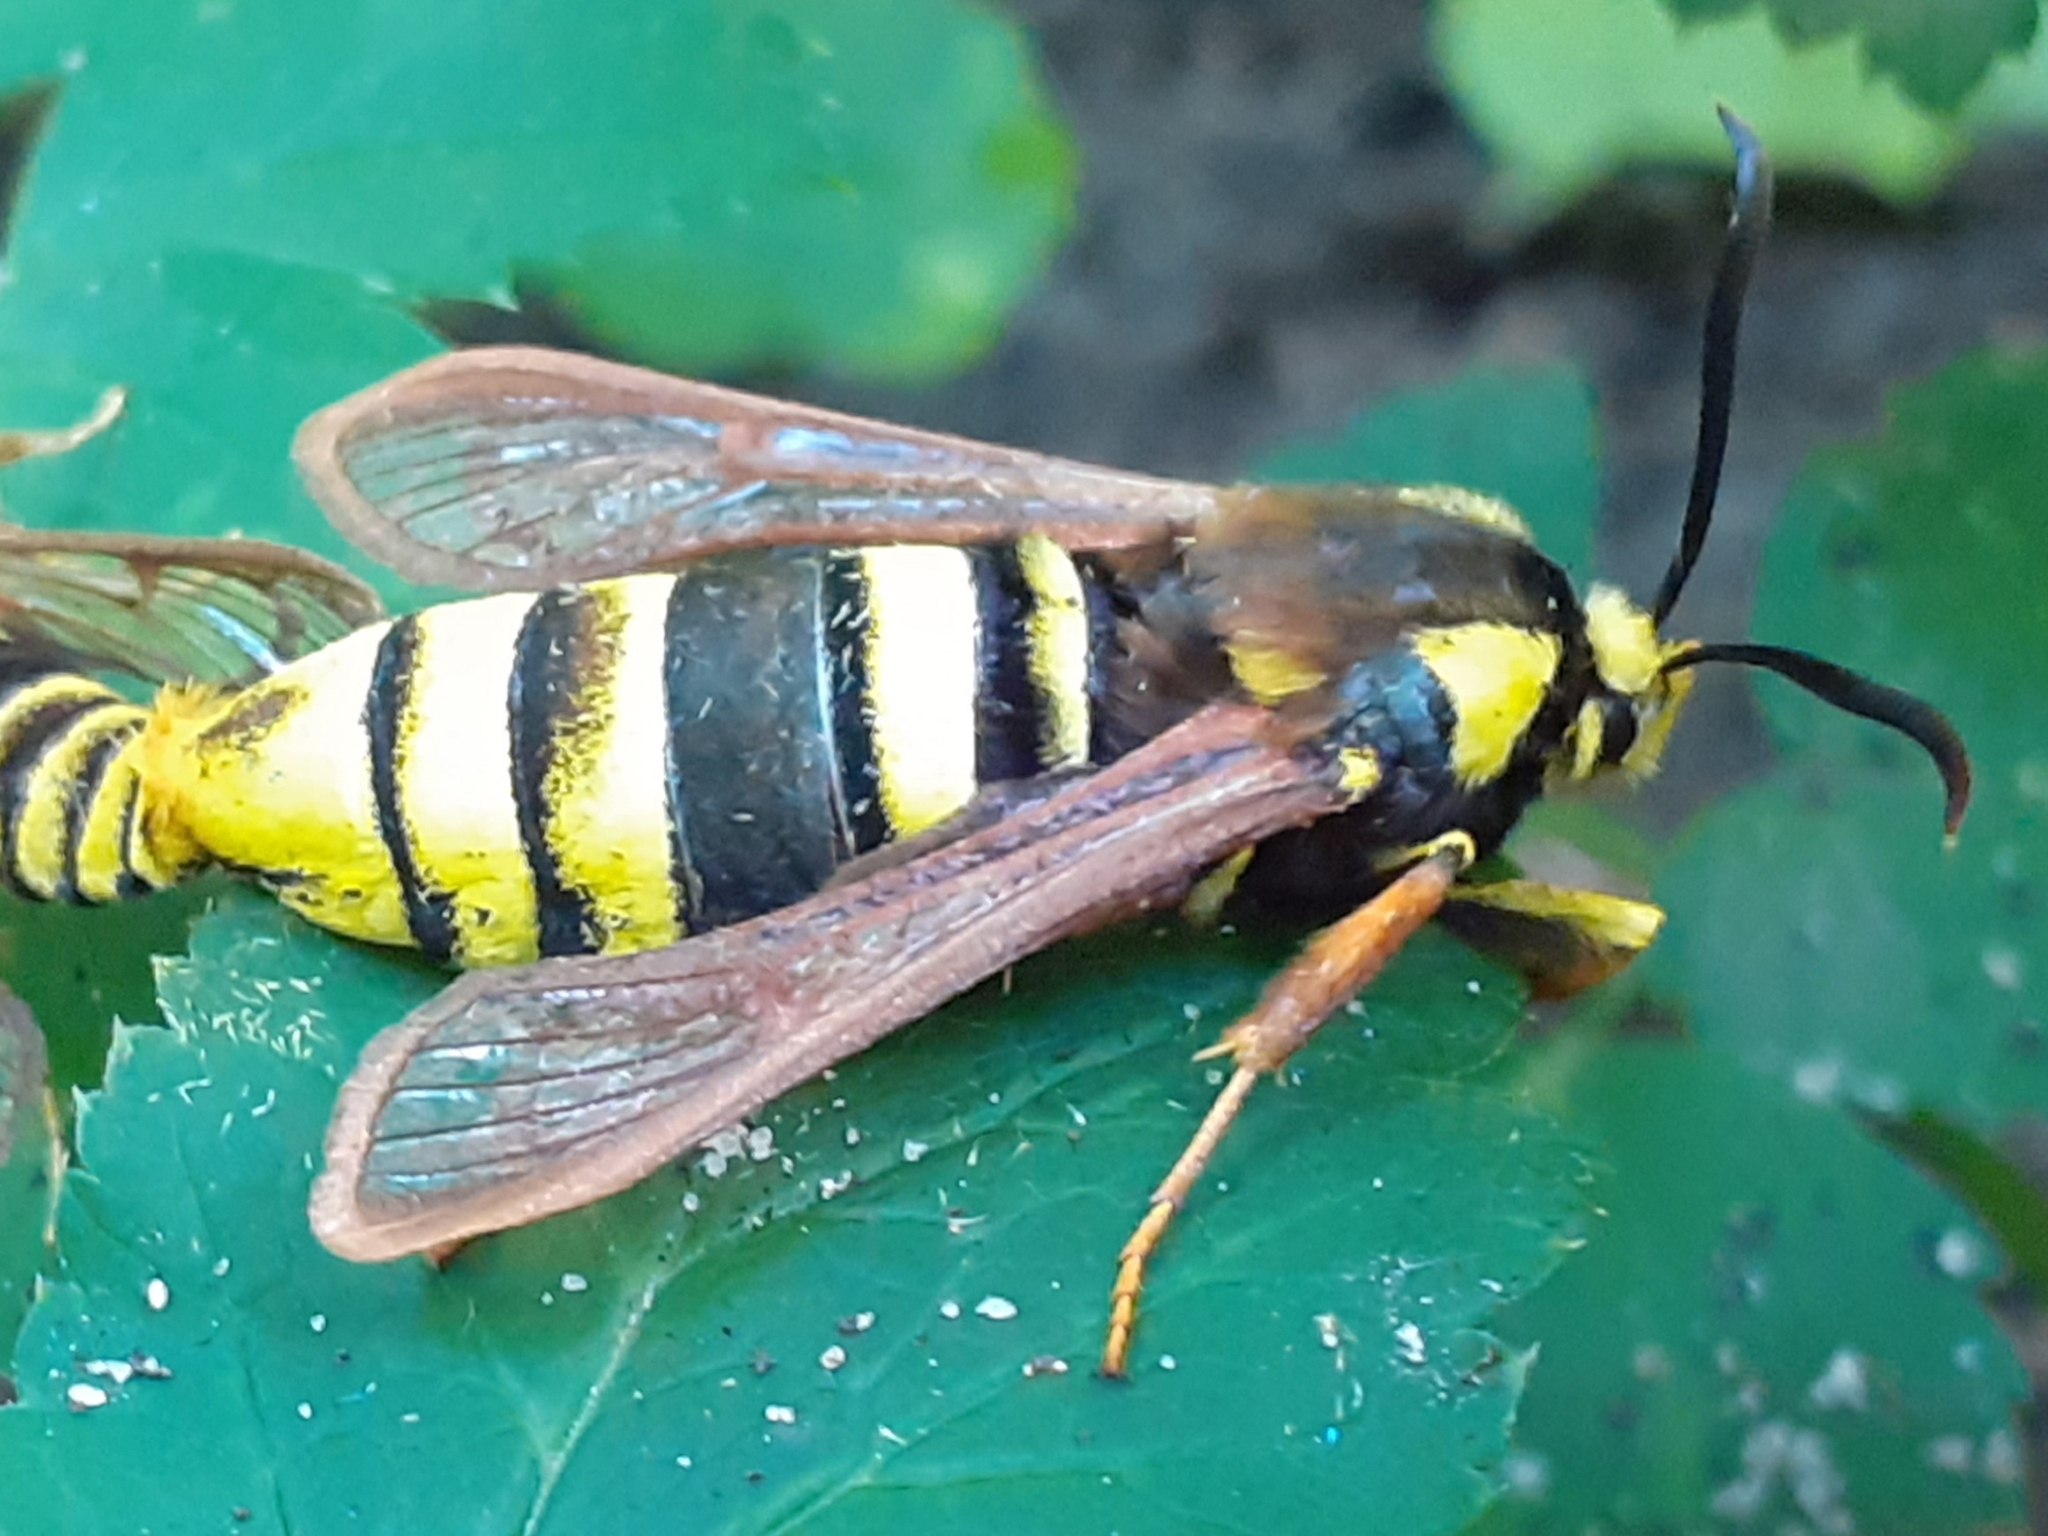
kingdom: Animalia
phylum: Arthropoda
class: Insecta
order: Lepidoptera
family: Sesiidae
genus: Sesia
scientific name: Sesia apiformis
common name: Hornet moth
